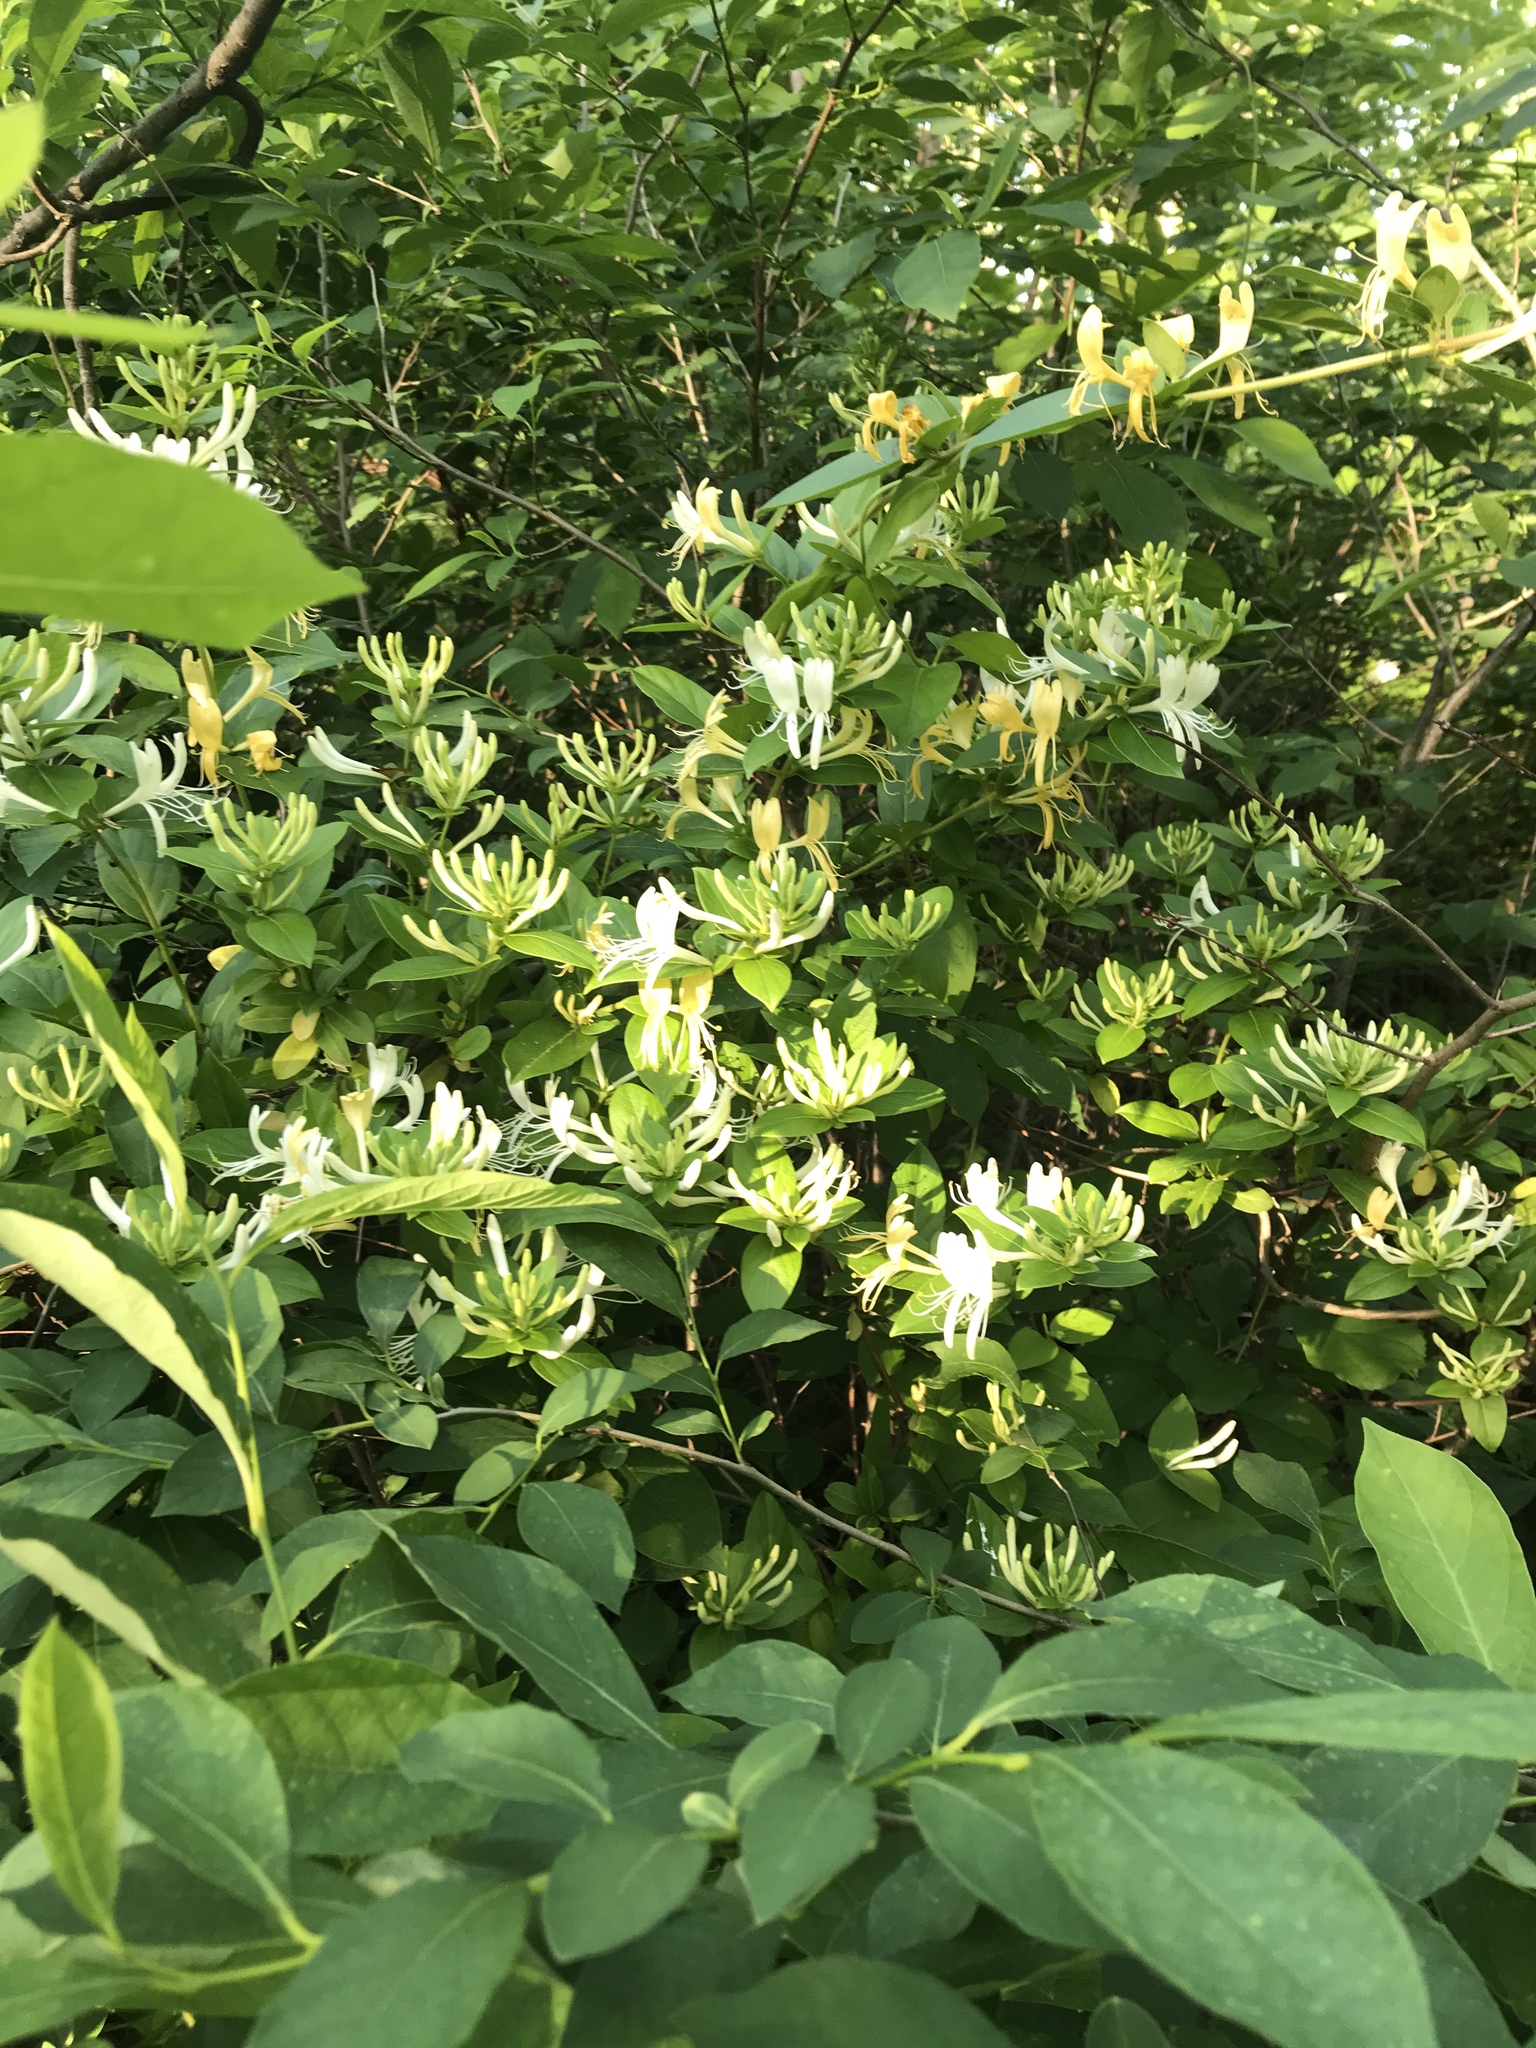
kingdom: Plantae
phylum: Tracheophyta
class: Magnoliopsida
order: Dipsacales
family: Caprifoliaceae
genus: Lonicera
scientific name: Lonicera japonica
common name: Japanese honeysuckle
